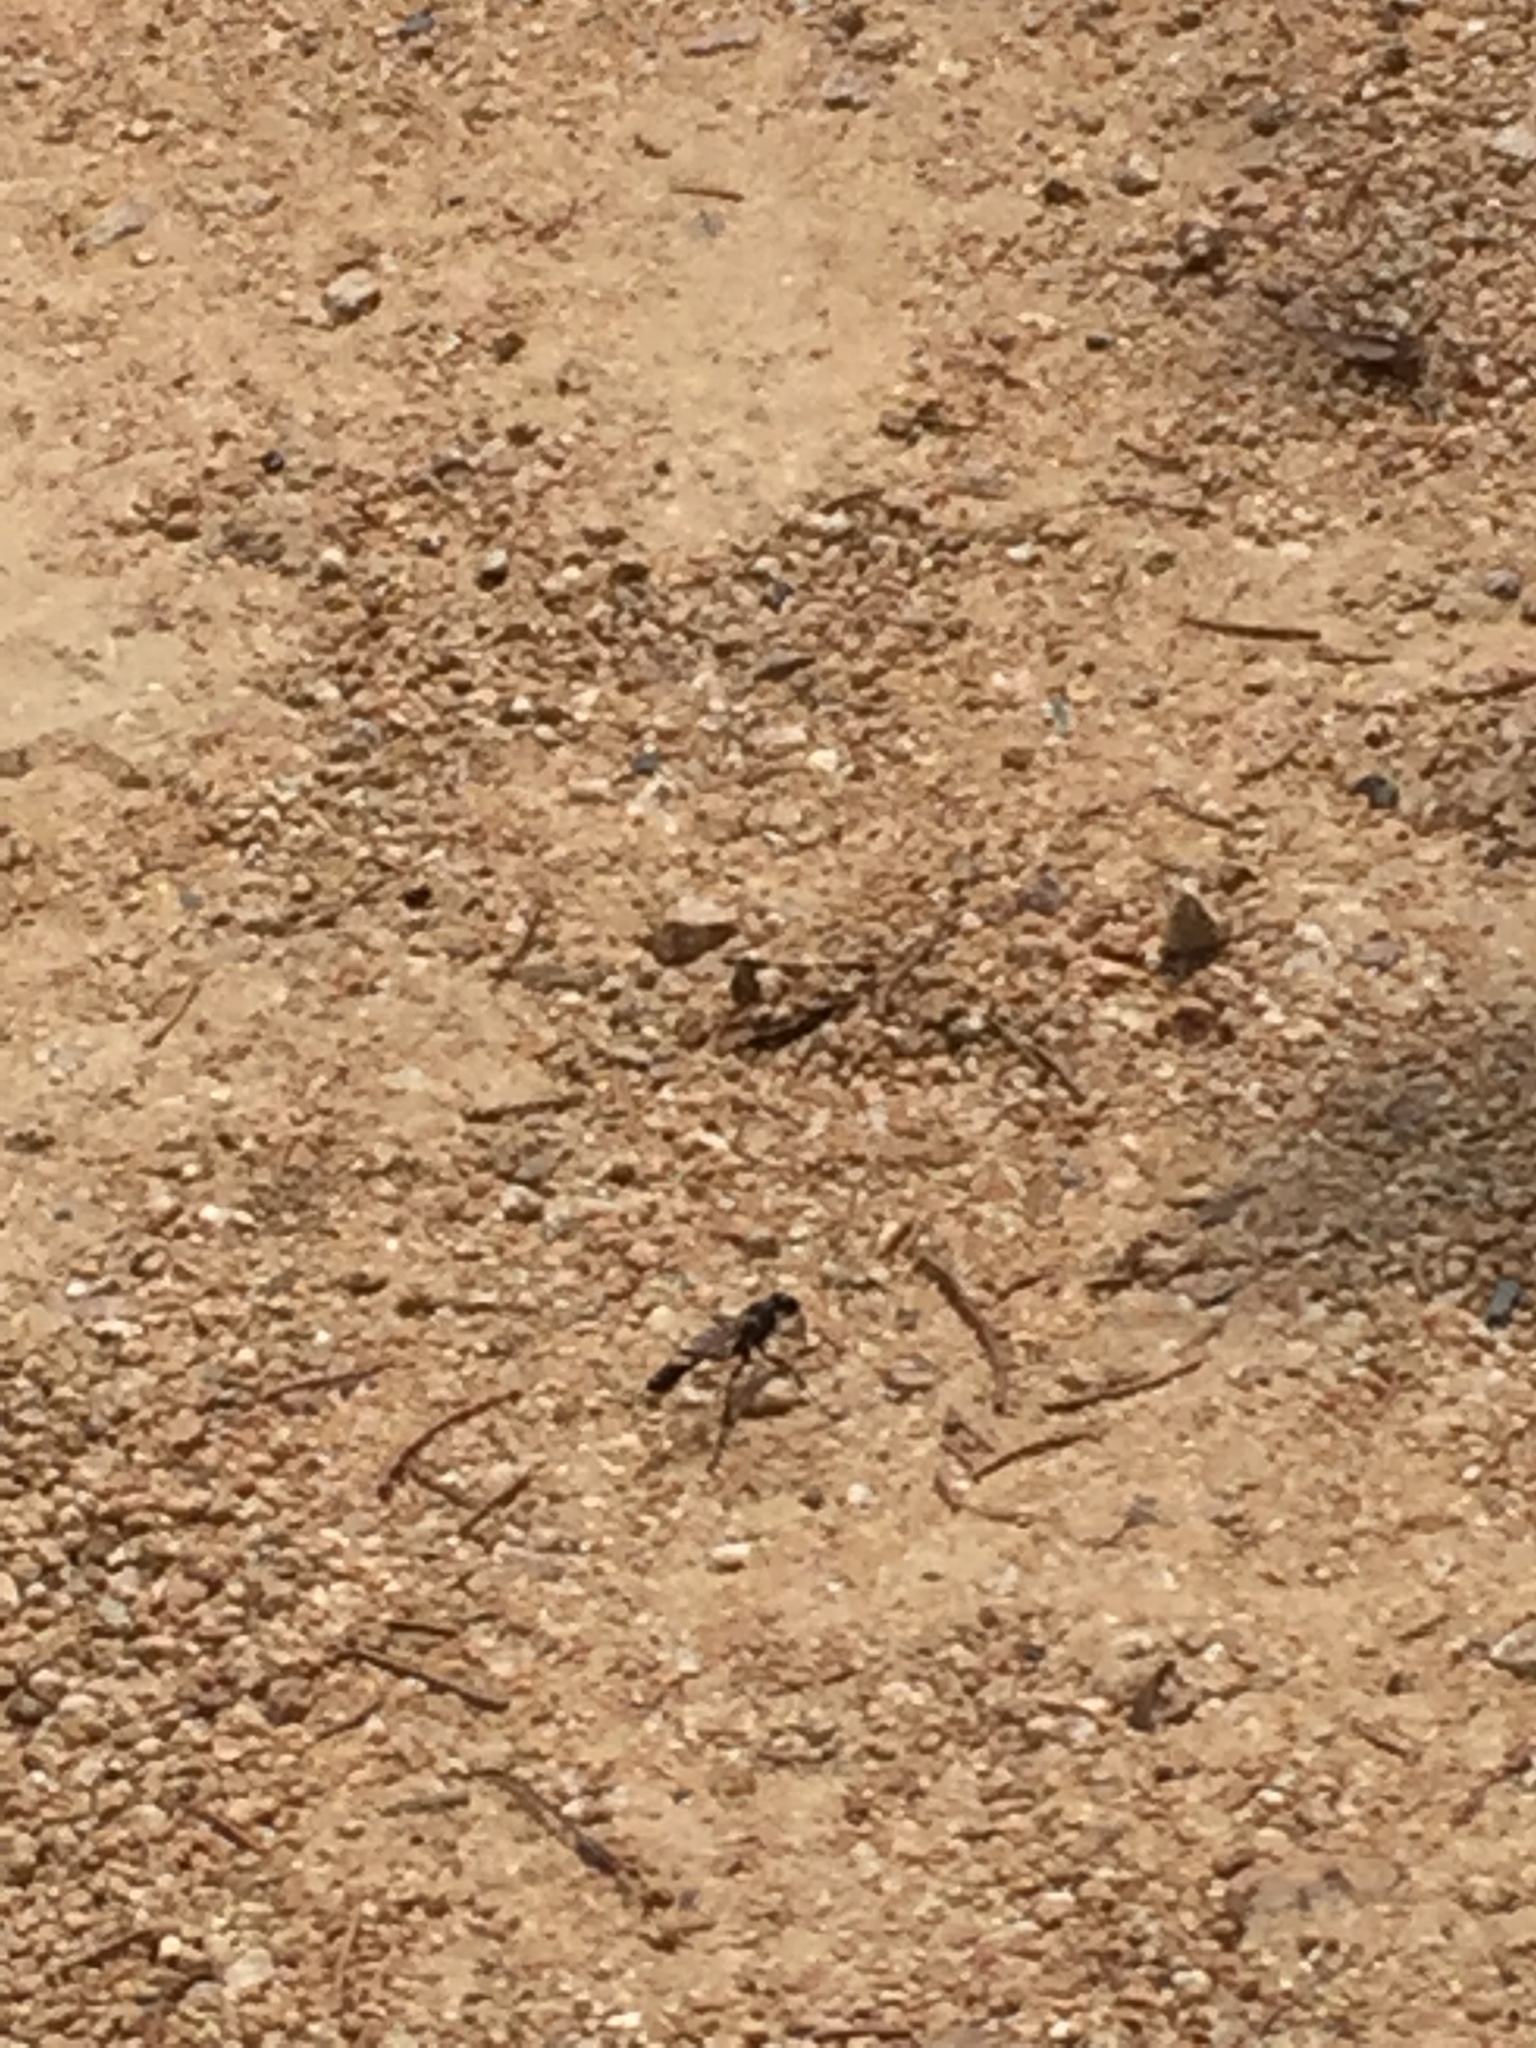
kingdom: Animalia
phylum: Arthropoda
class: Insecta
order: Hymenoptera
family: Sphecidae
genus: Eremnophila
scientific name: Eremnophila aureonotata
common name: Gold-marked thread-waisted wasp
